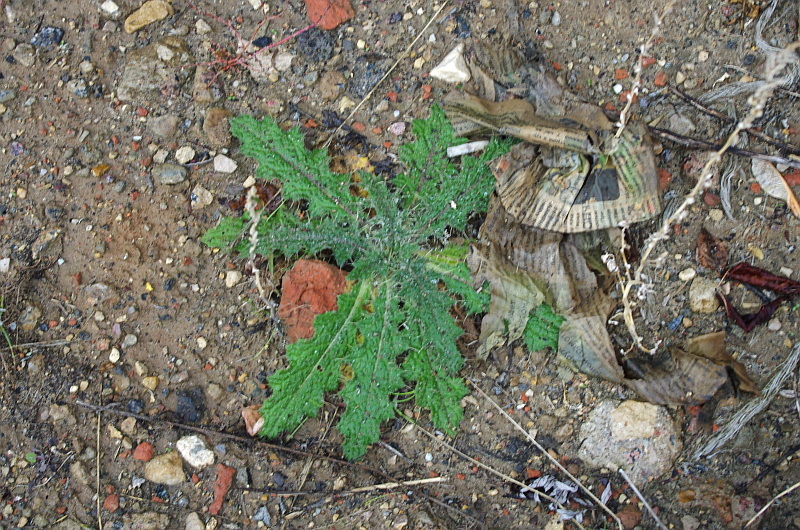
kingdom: Plantae
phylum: Tracheophyta
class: Magnoliopsida
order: Asterales
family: Asteraceae
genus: Cirsium
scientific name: Cirsium vulgare
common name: Bull thistle
